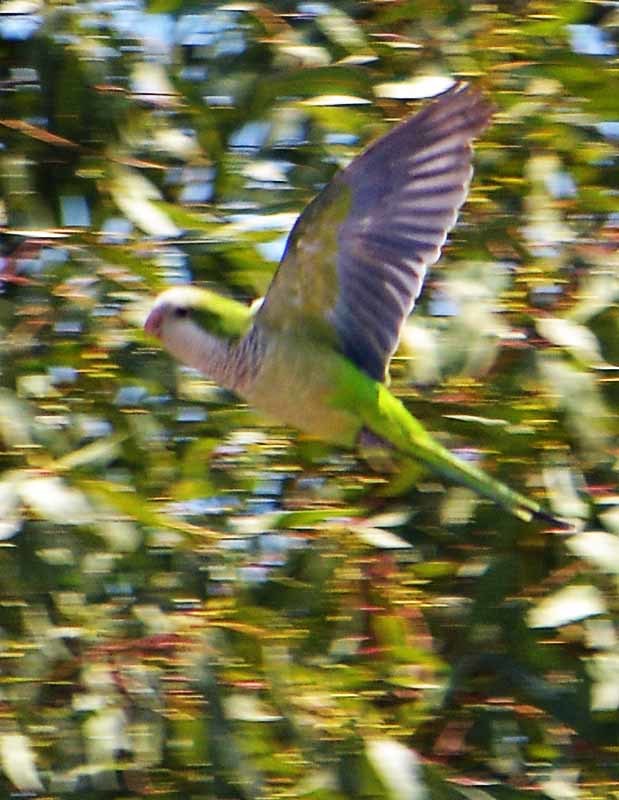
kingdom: Animalia
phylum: Chordata
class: Aves
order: Psittaciformes
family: Psittacidae
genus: Myiopsitta
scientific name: Myiopsitta monachus
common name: Monk parakeet
